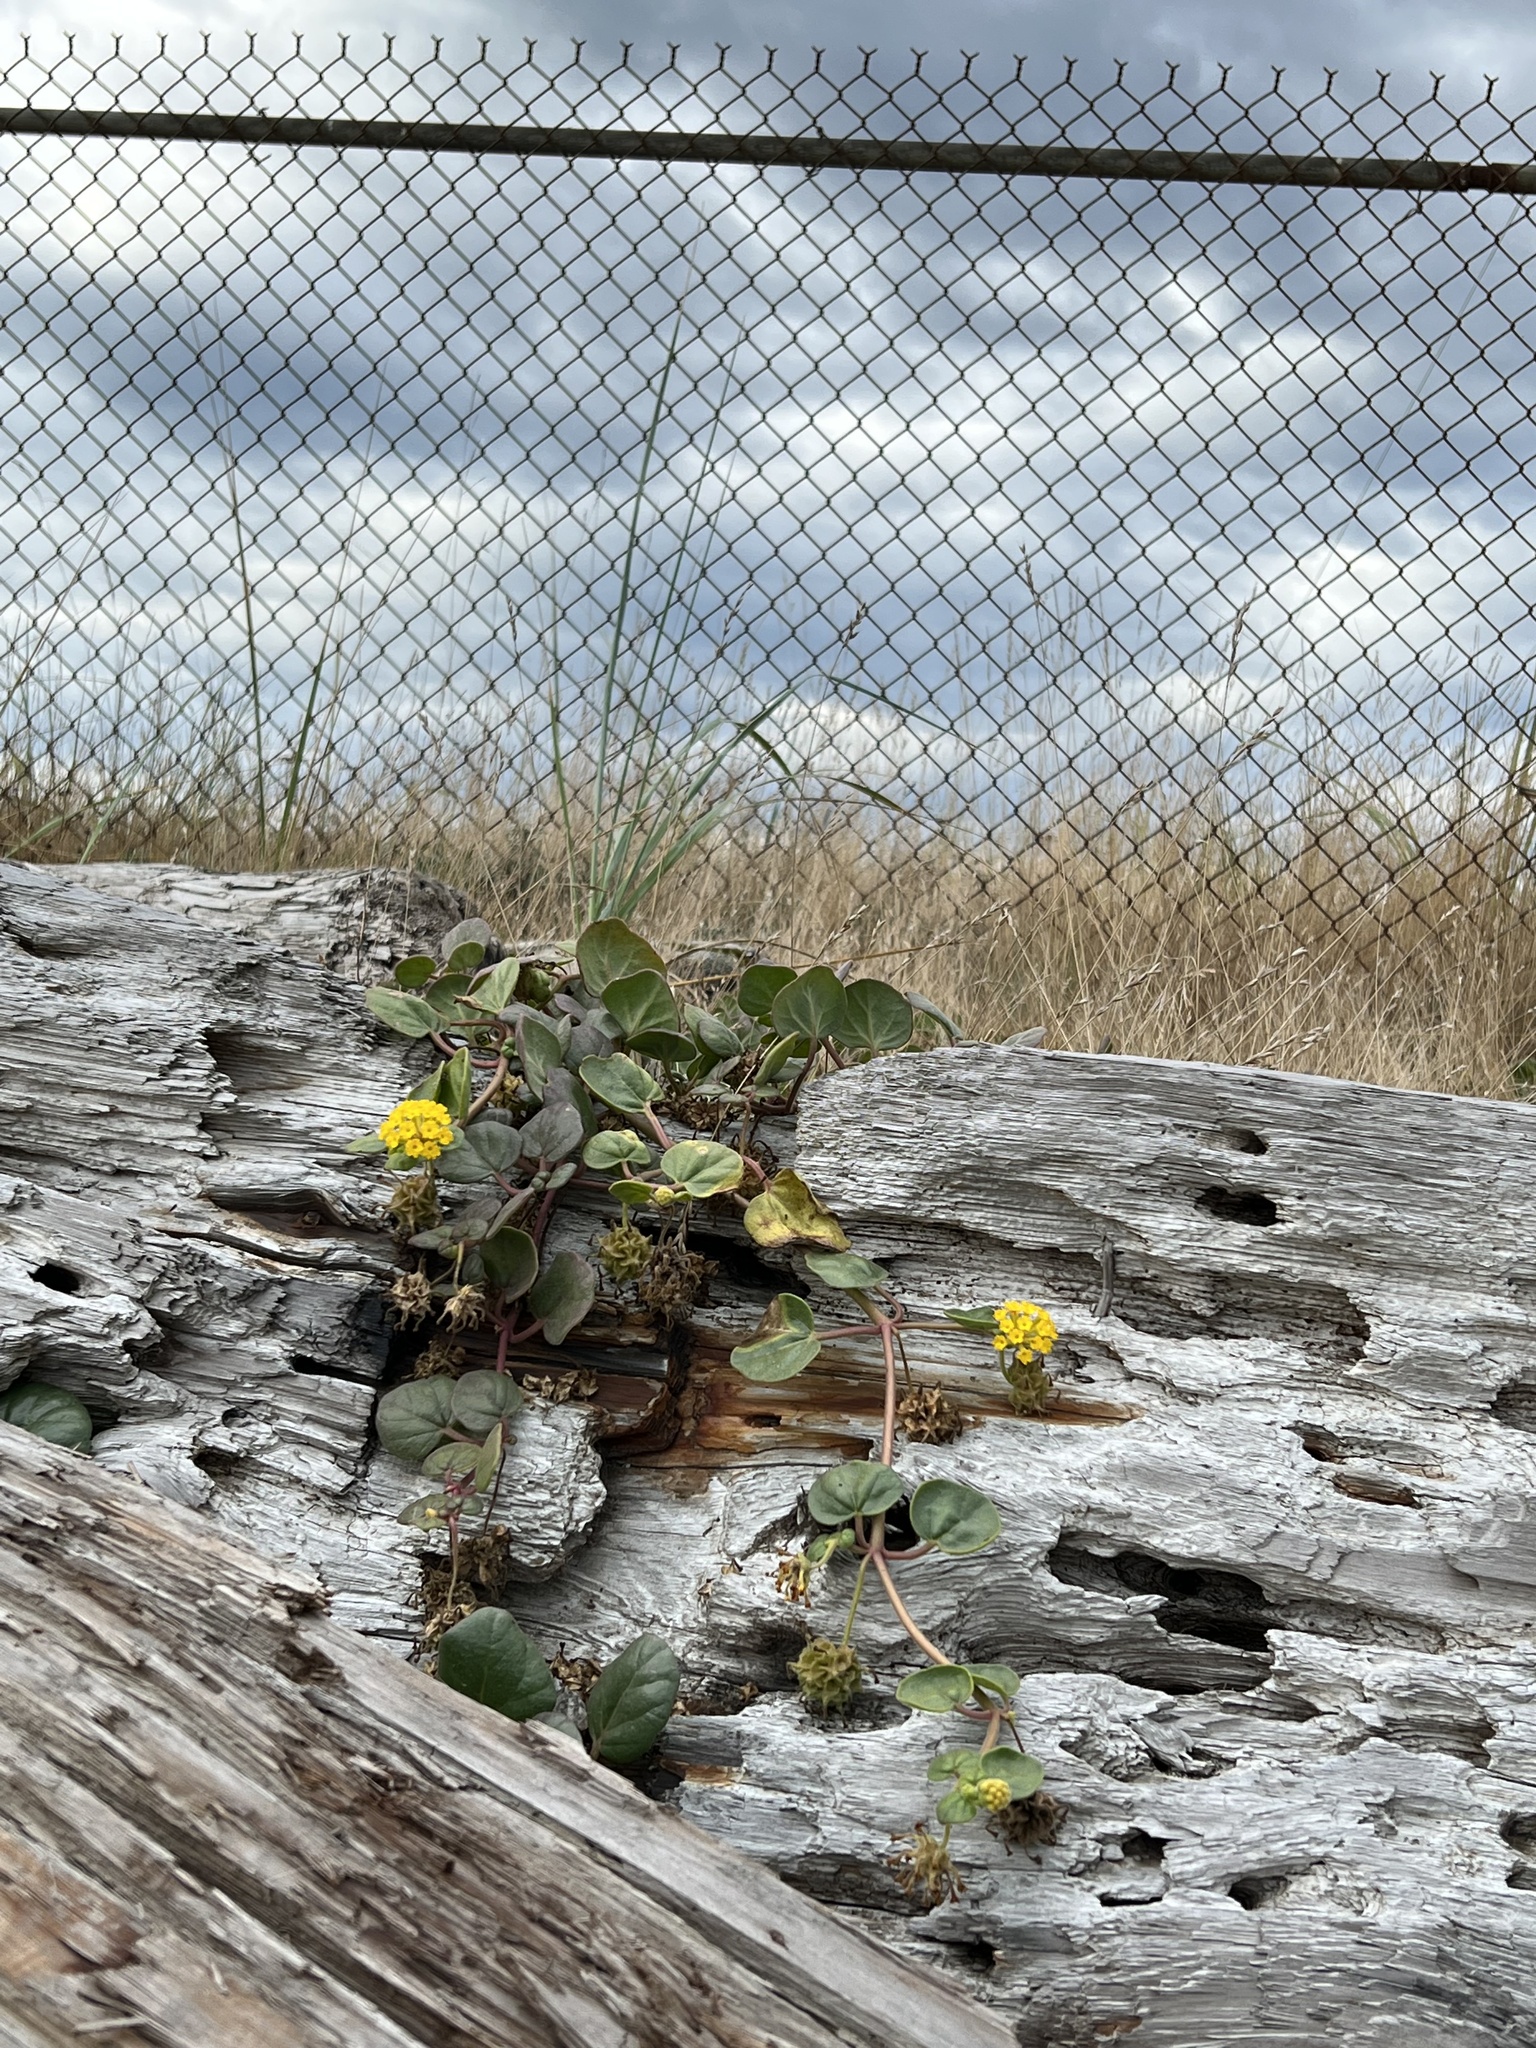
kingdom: Plantae
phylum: Tracheophyta
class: Magnoliopsida
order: Caryophyllales
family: Nyctaginaceae
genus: Abronia
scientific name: Abronia latifolia
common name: Yellow sand-verbena
